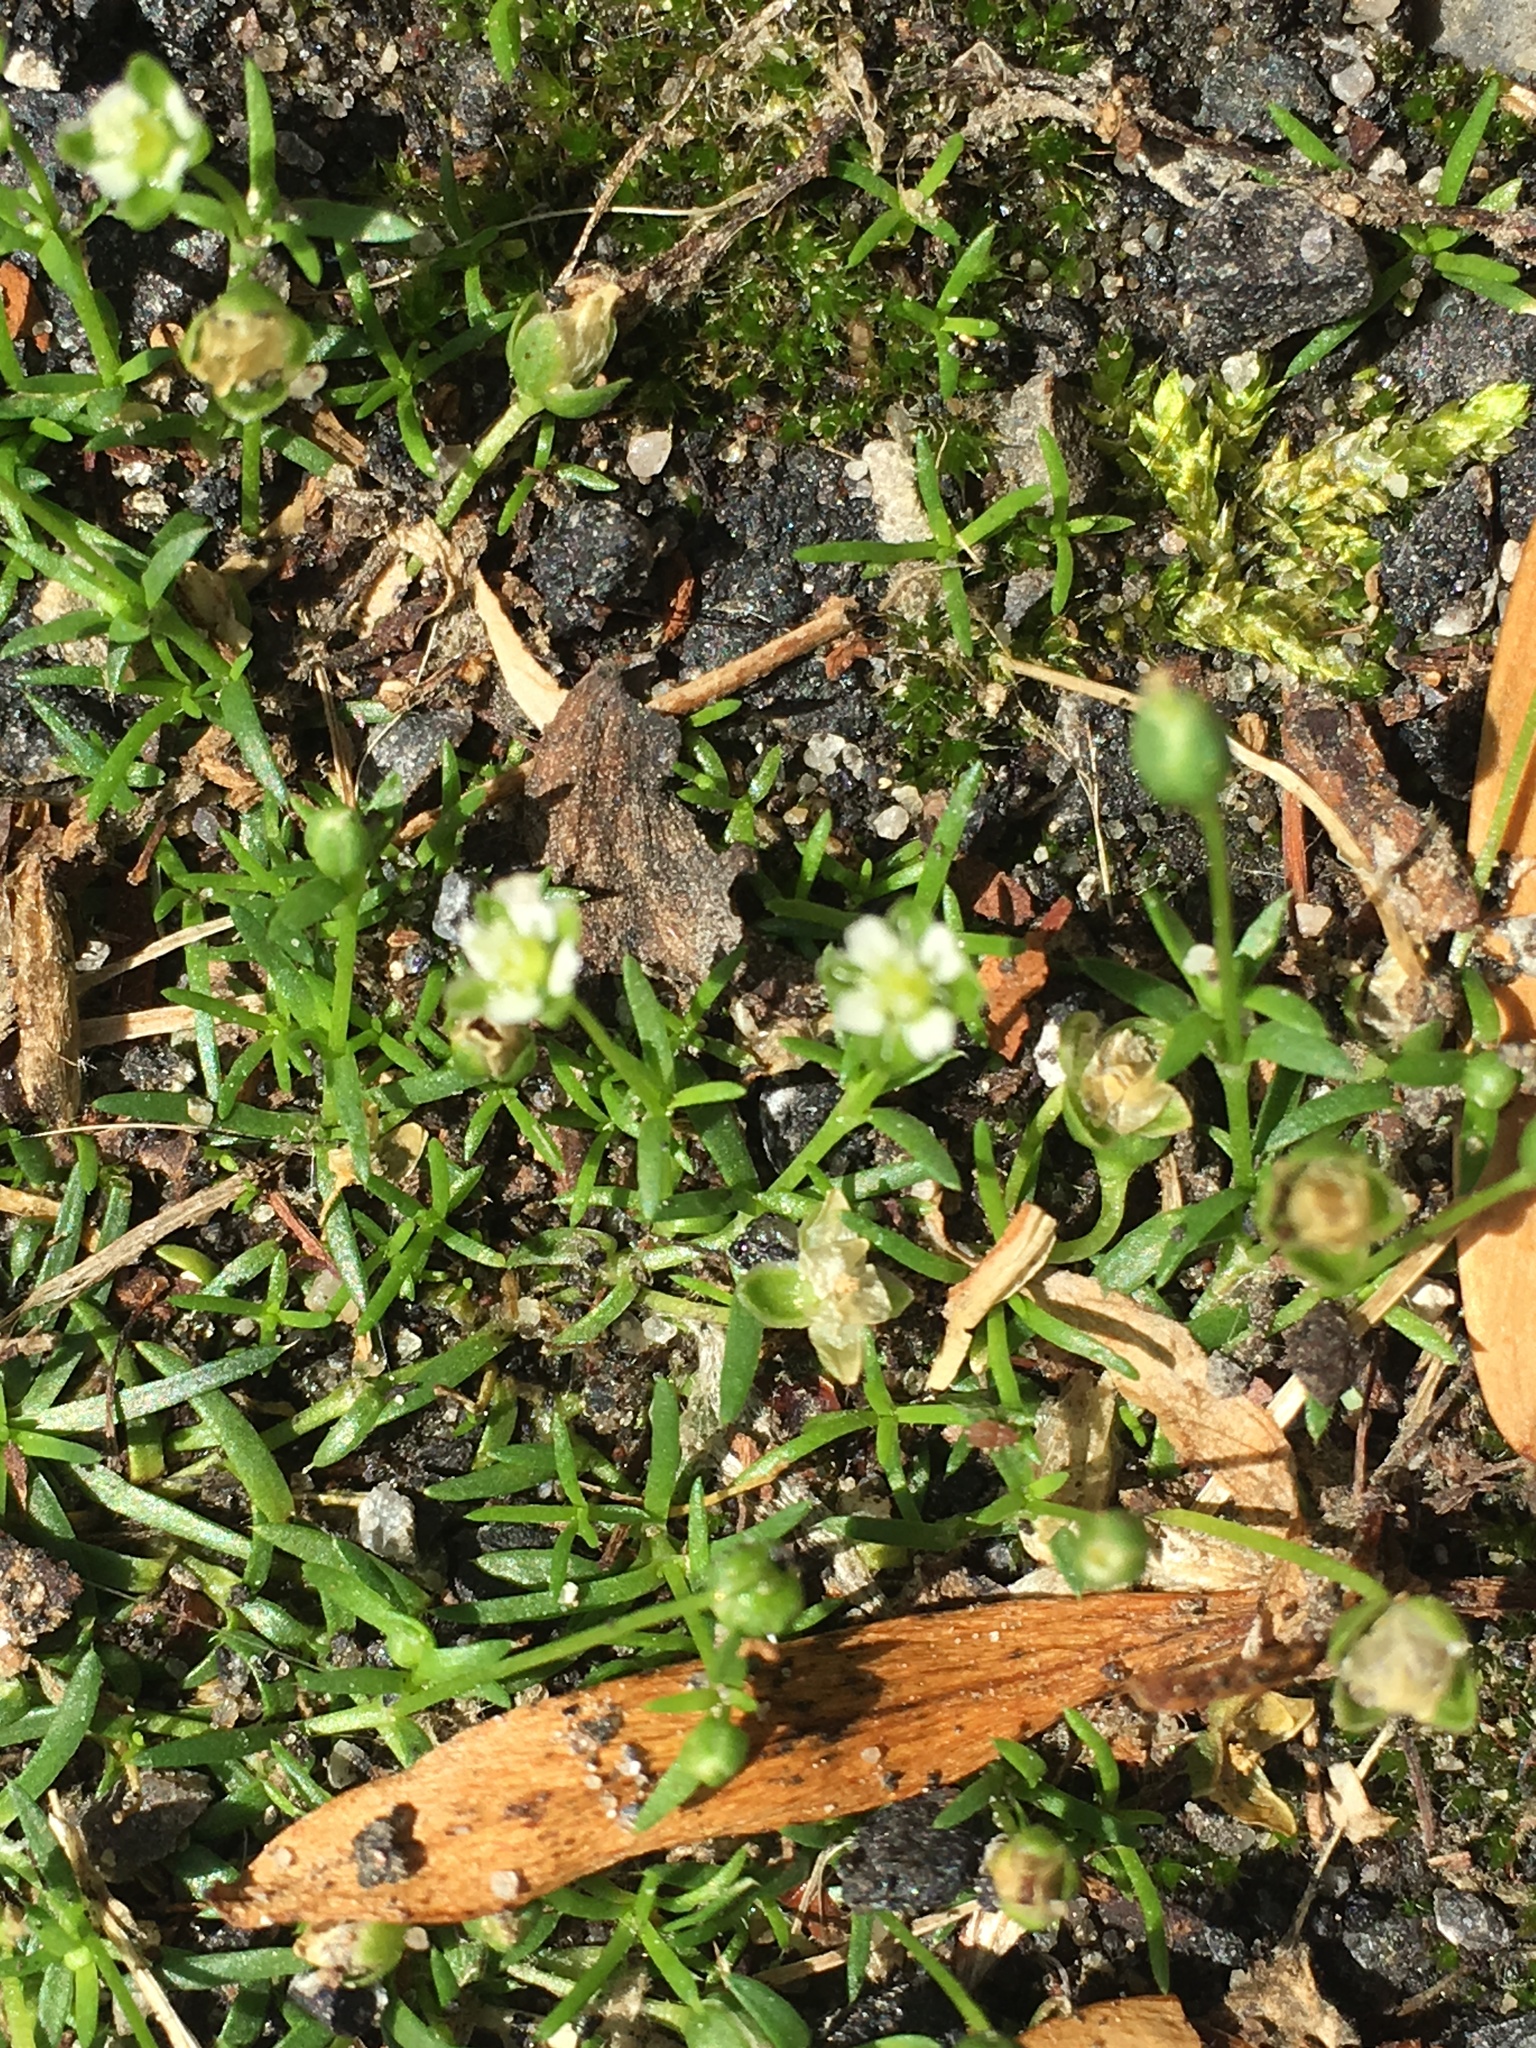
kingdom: Plantae
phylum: Tracheophyta
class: Magnoliopsida
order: Caryophyllales
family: Caryophyllaceae
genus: Sagina
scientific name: Sagina procumbens
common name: Procumbent pearlwort
